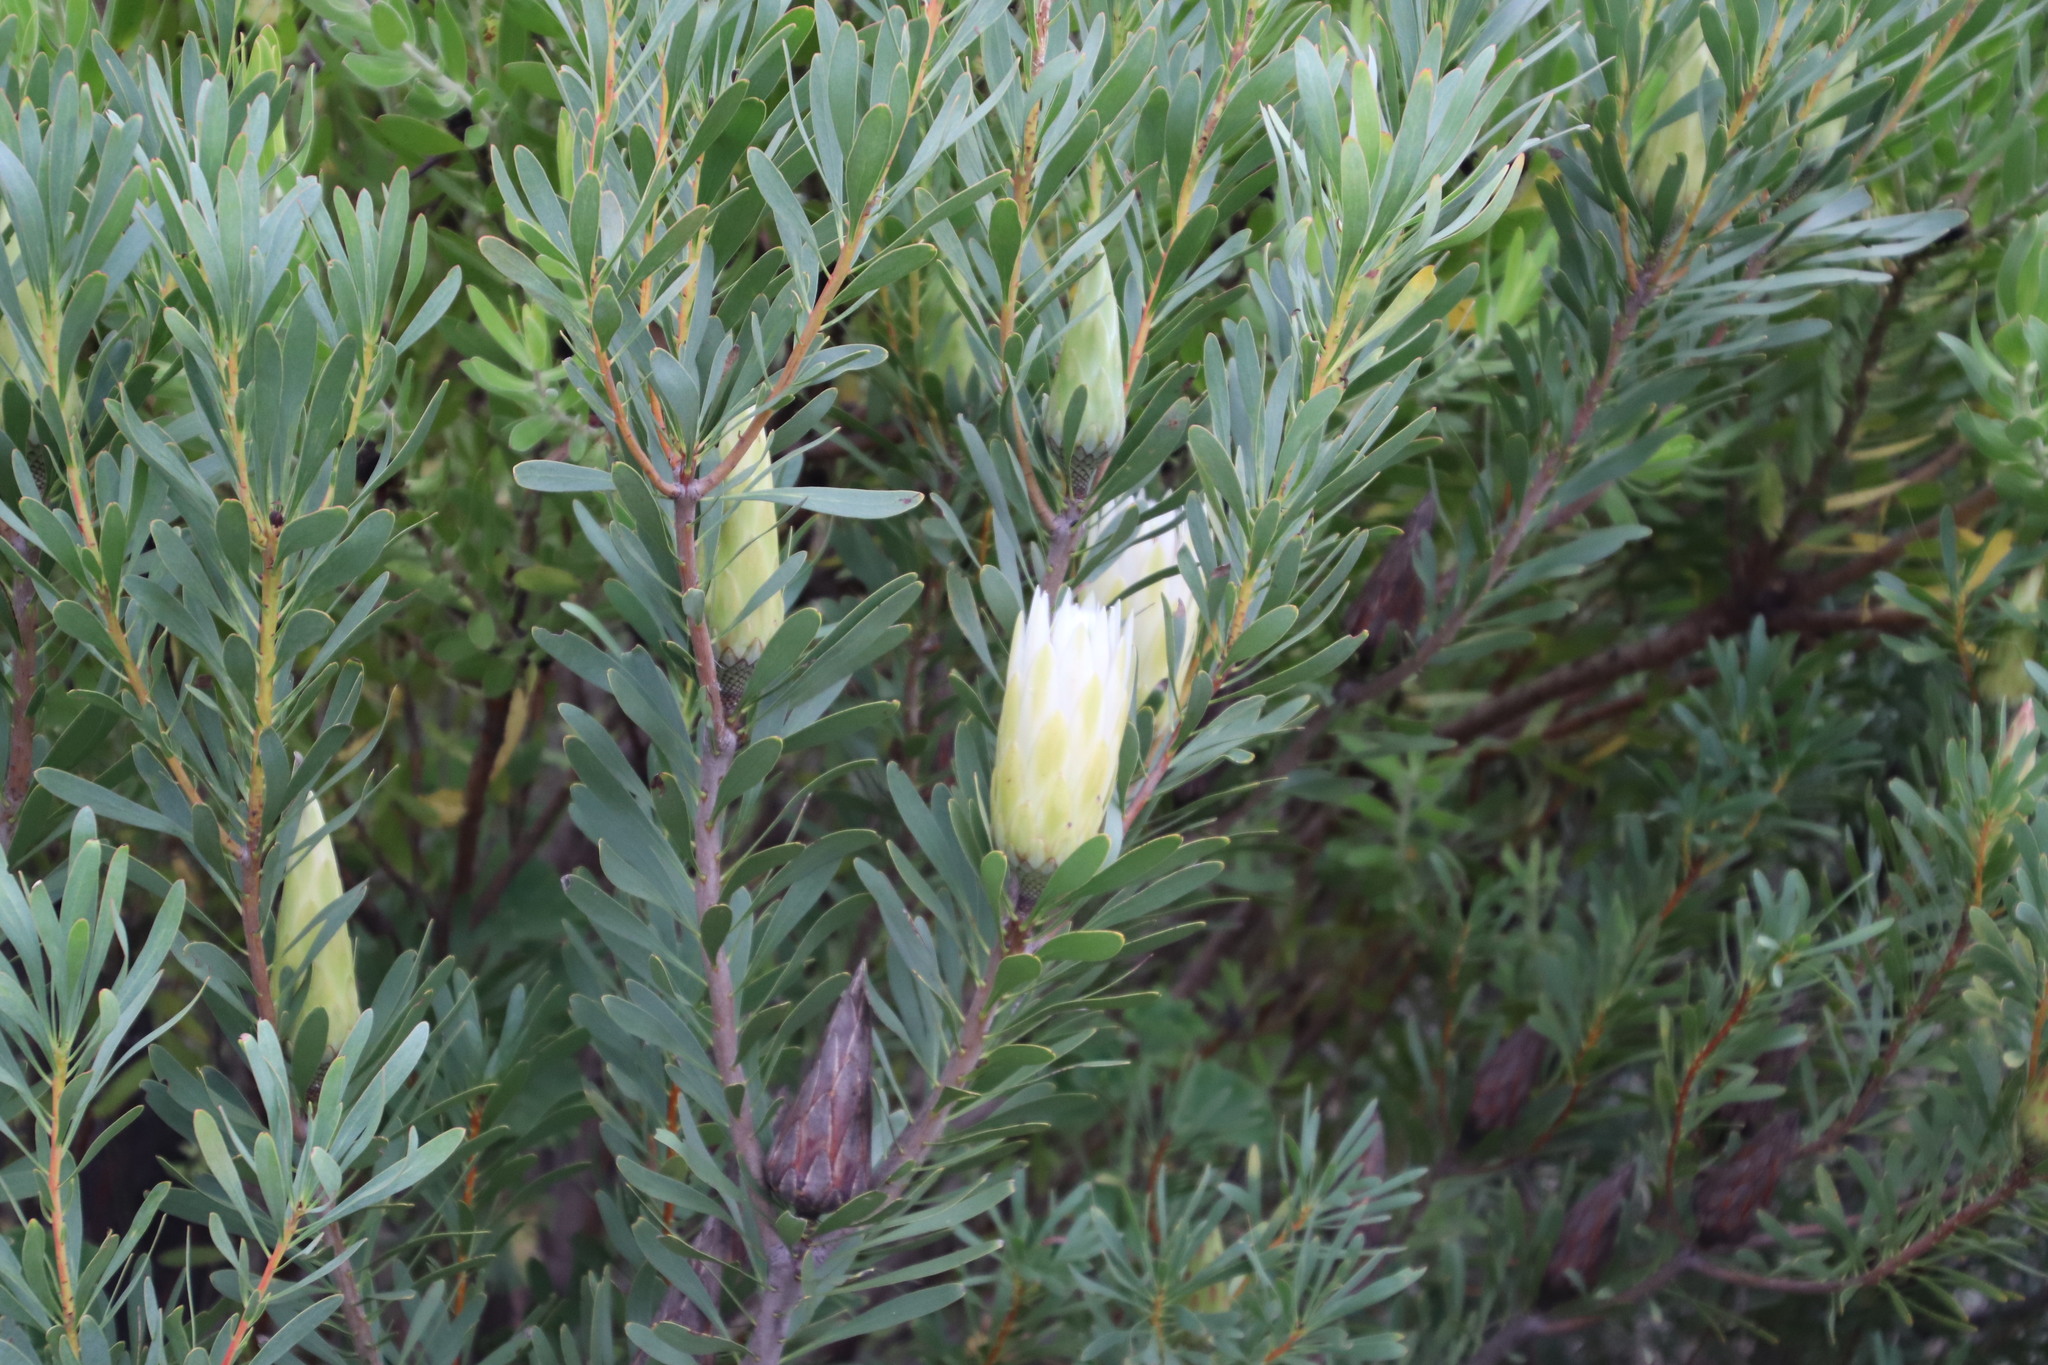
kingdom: Plantae
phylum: Tracheophyta
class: Magnoliopsida
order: Proteales
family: Proteaceae
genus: Protea
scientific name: Protea repens
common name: Sugarbush
